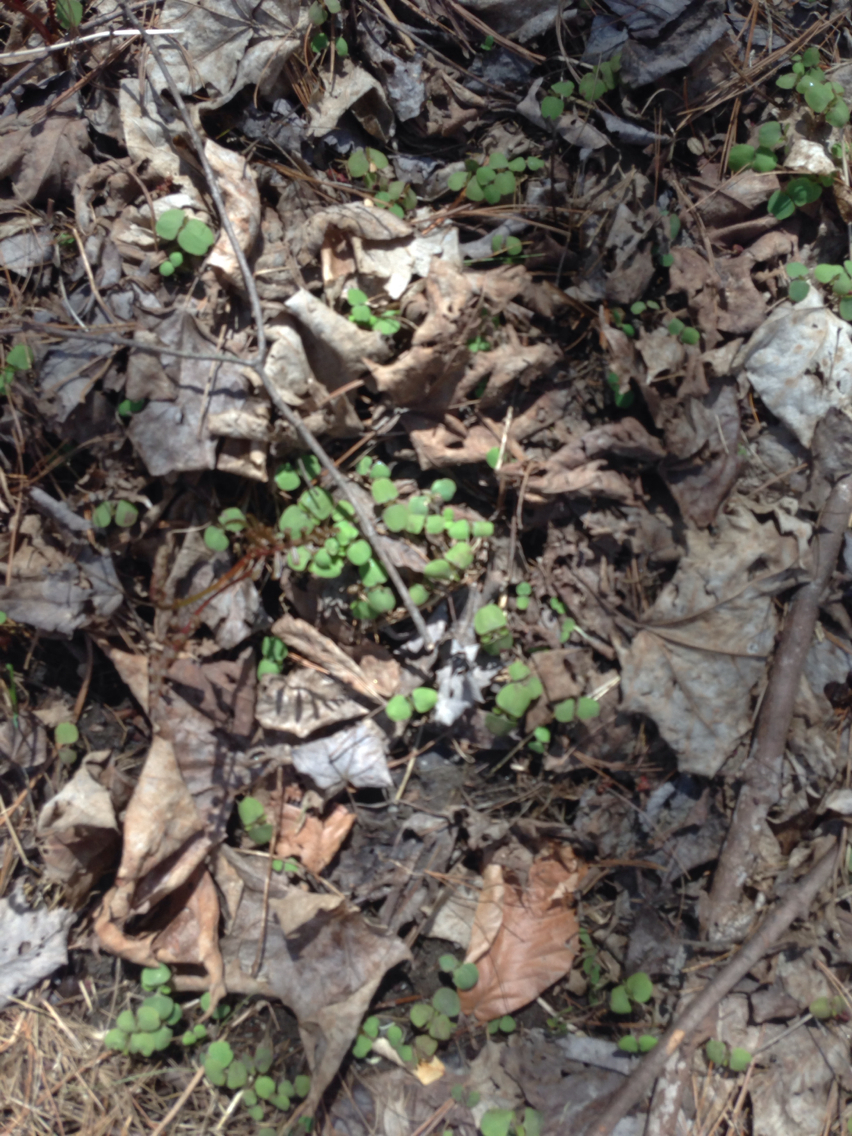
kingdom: Plantae
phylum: Tracheophyta
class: Magnoliopsida
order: Ericales
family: Balsaminaceae
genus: Impatiens
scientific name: Impatiens
